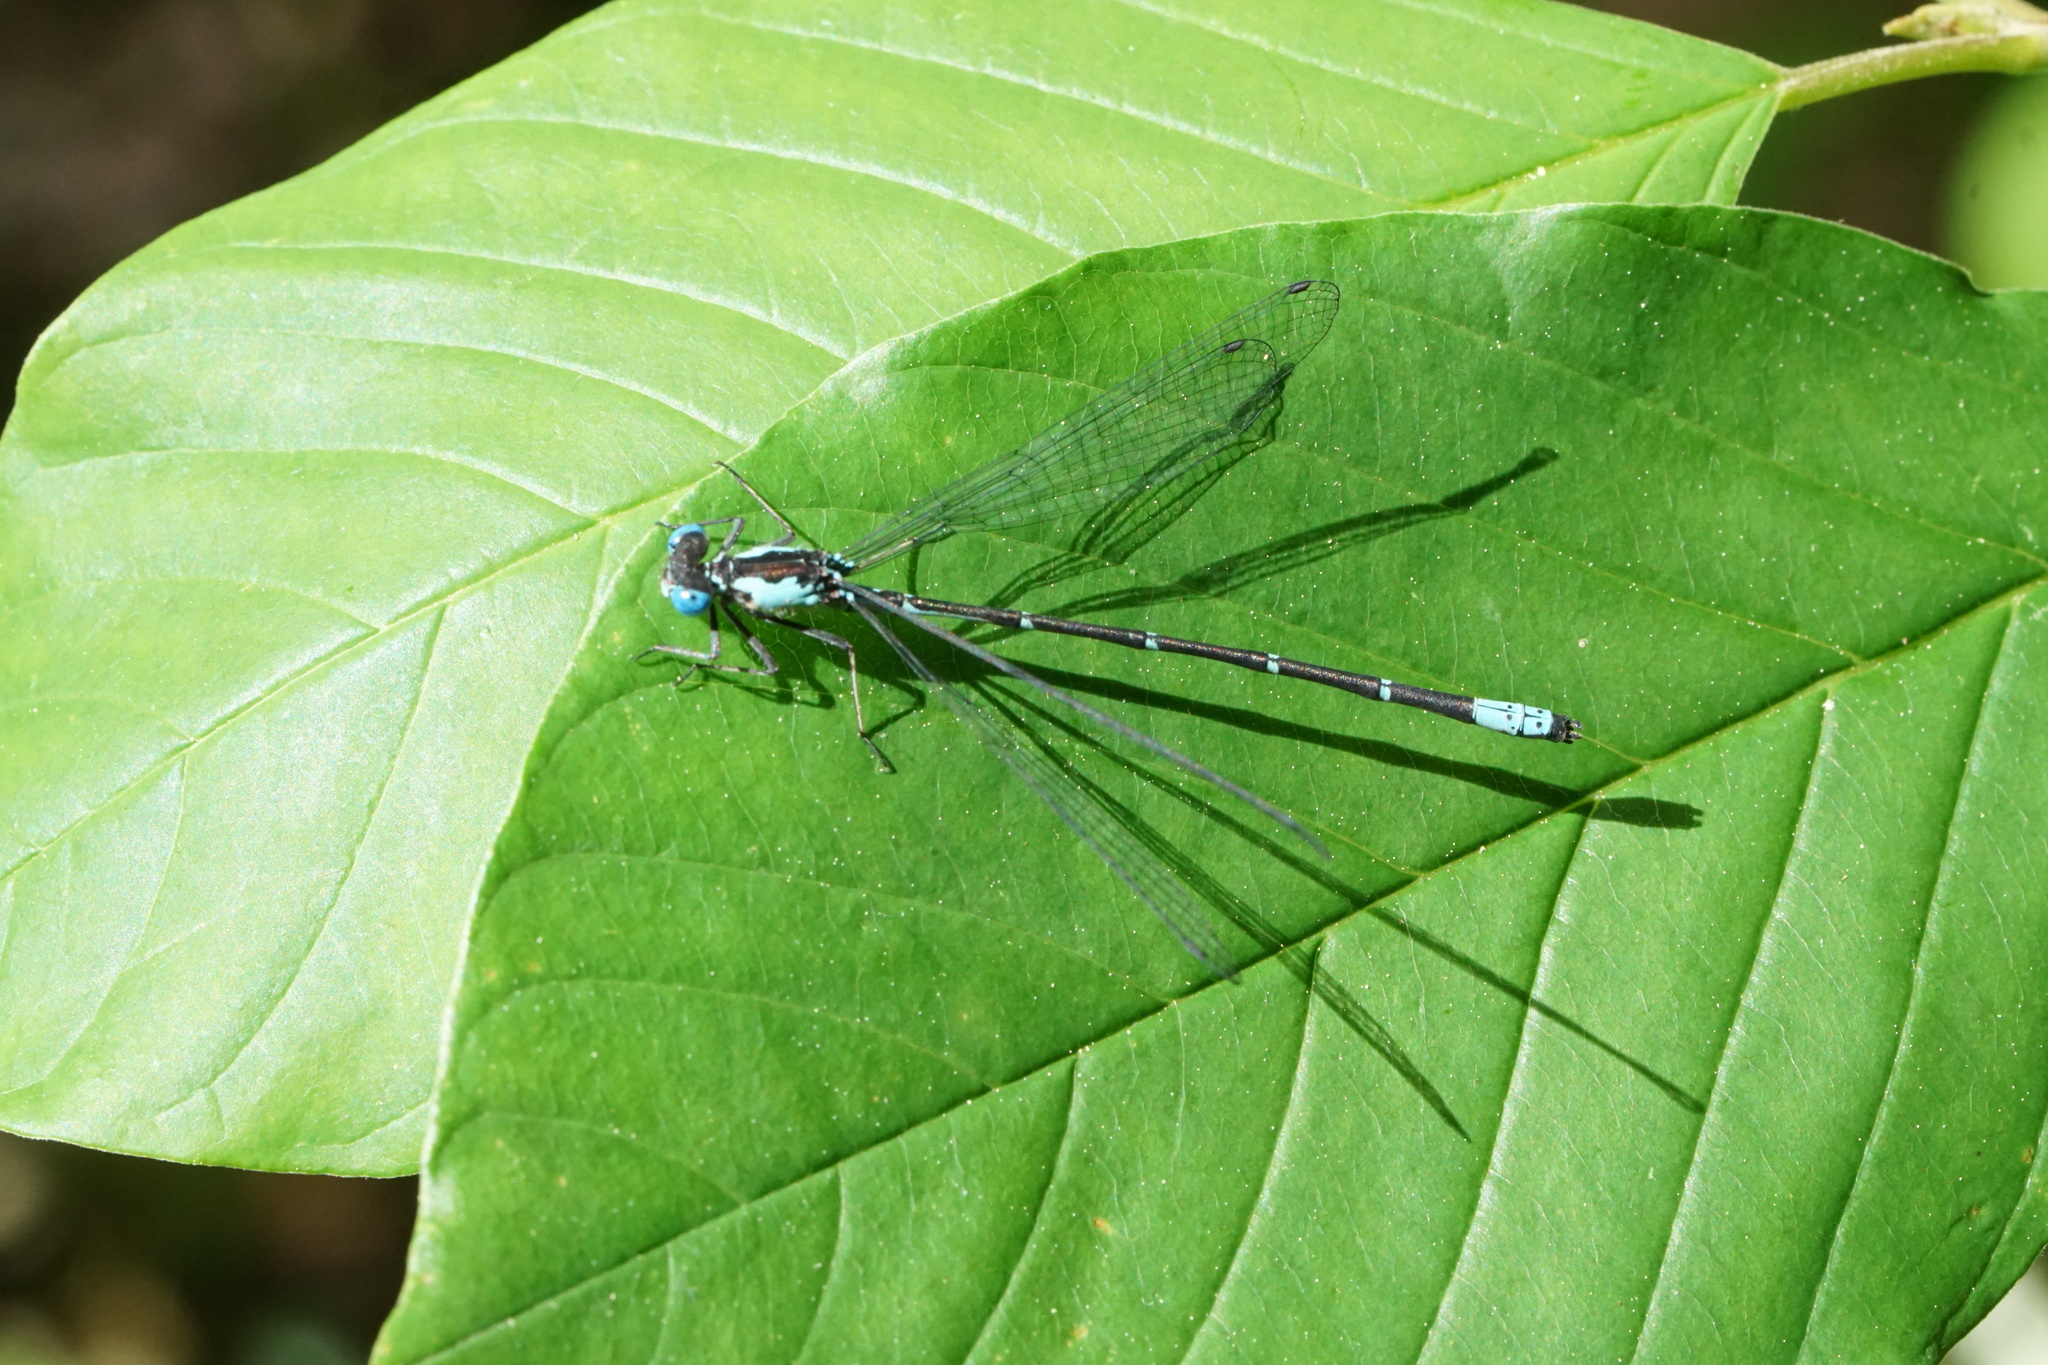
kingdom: Animalia
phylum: Arthropoda
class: Insecta
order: Odonata
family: Coenagrionidae
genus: Chromagrion
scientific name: Chromagrion conditum
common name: Aurora damsel
